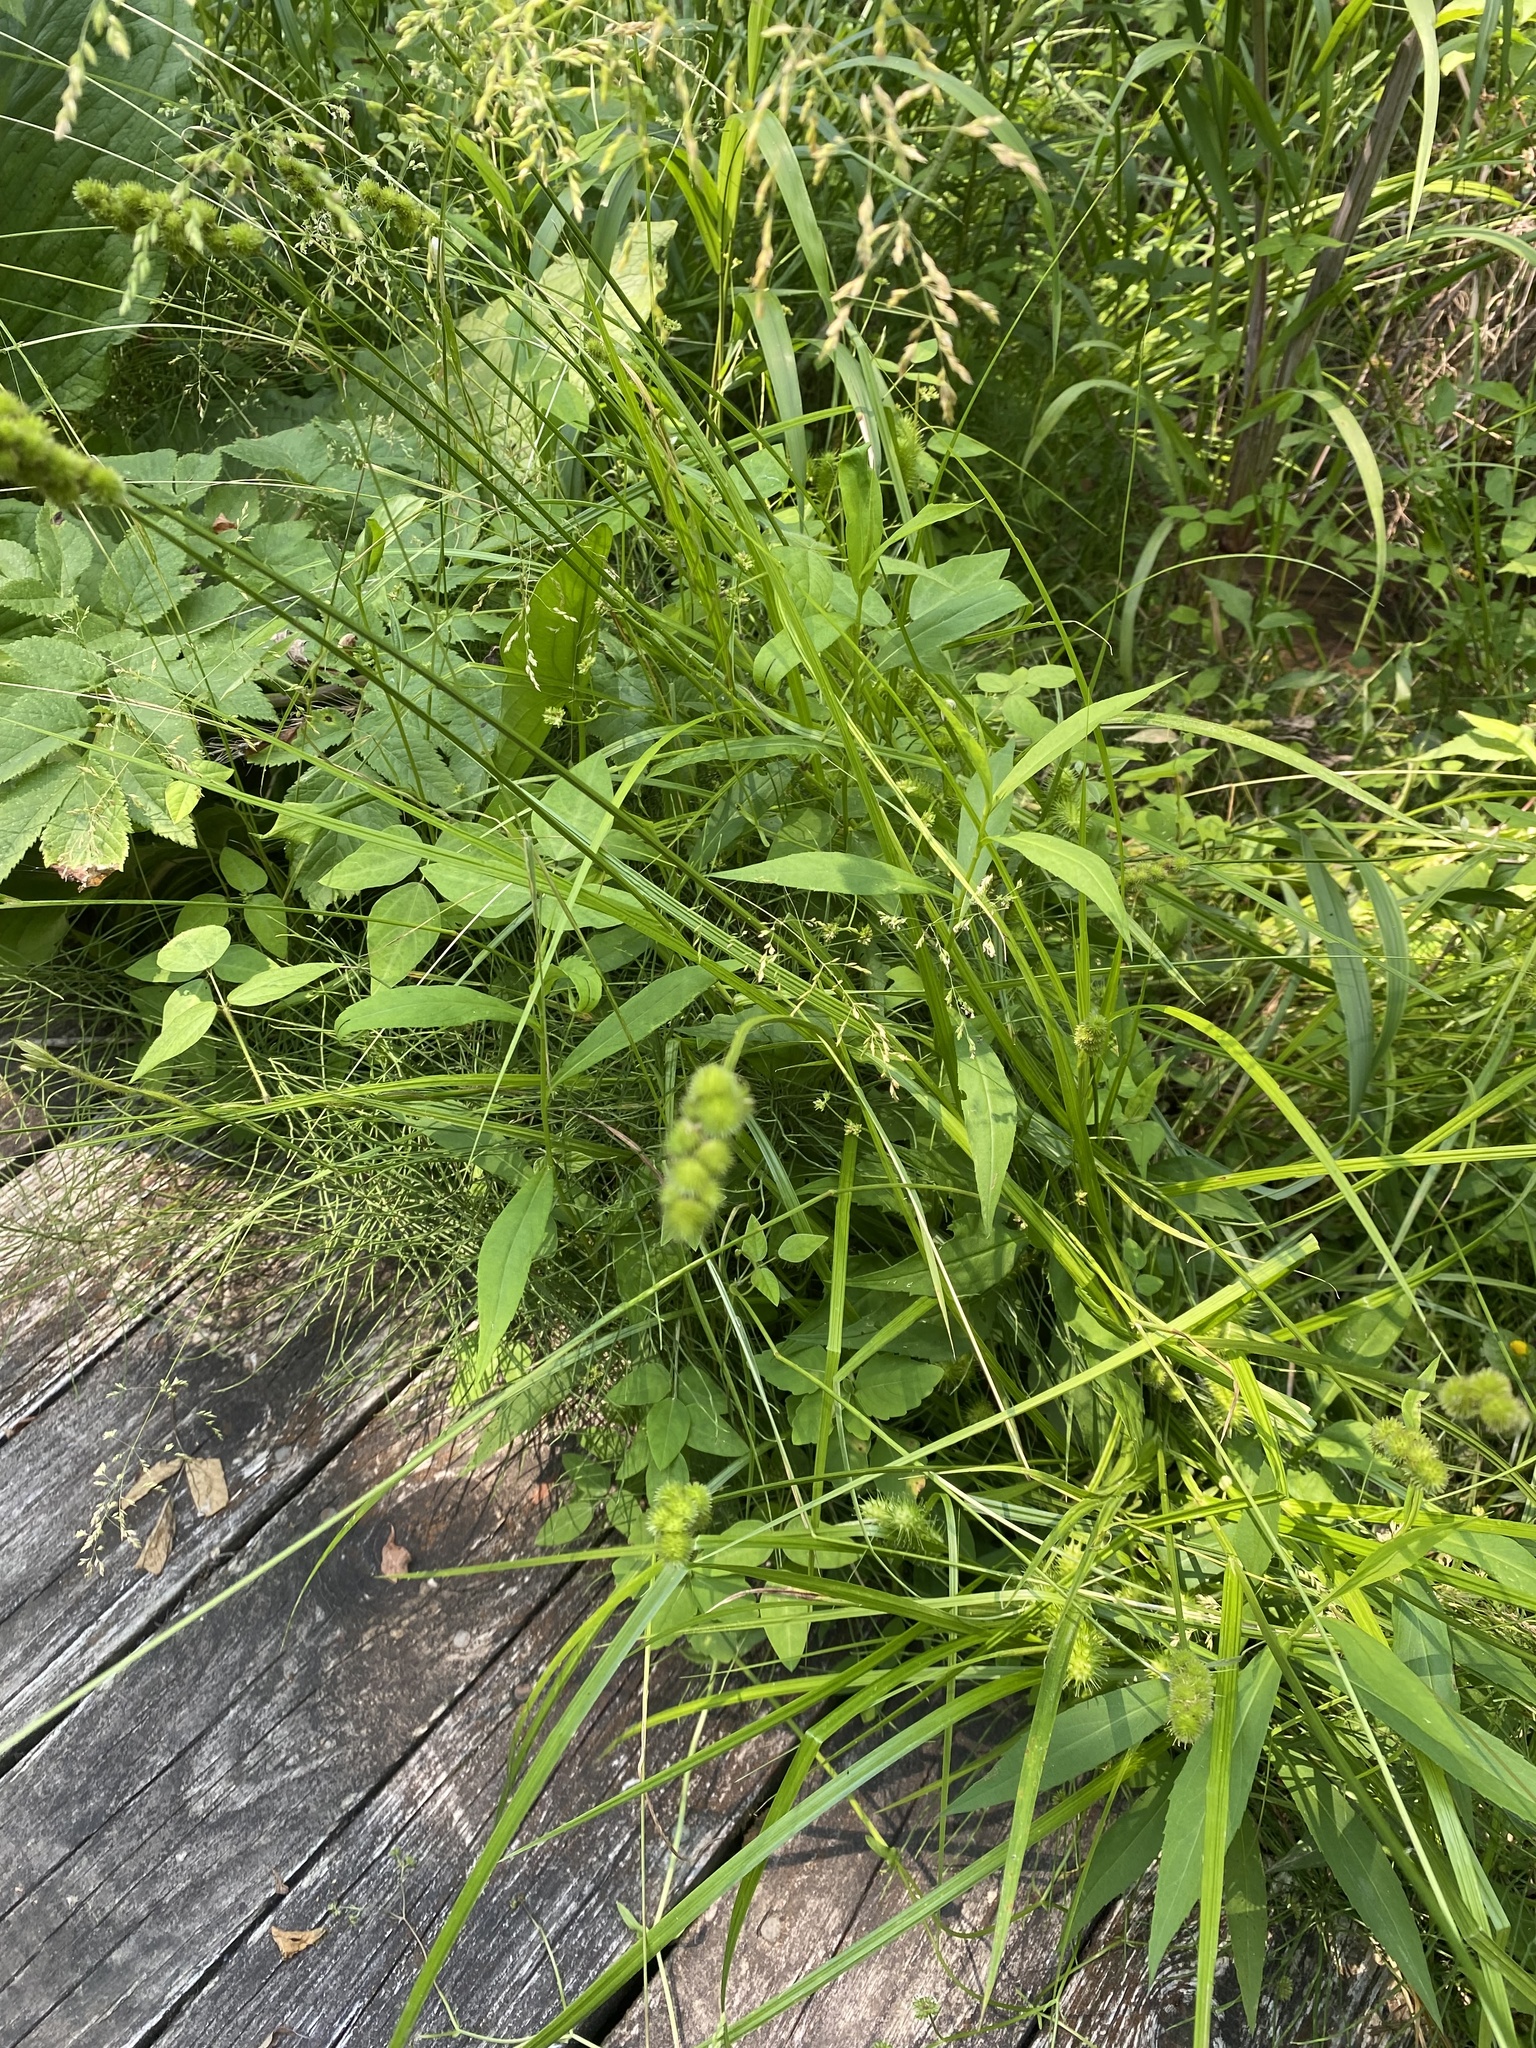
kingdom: Plantae
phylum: Tracheophyta
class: Liliopsida
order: Poales
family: Cyperaceae
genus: Carex
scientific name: Carex cristatella
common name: Crested oval sedge
